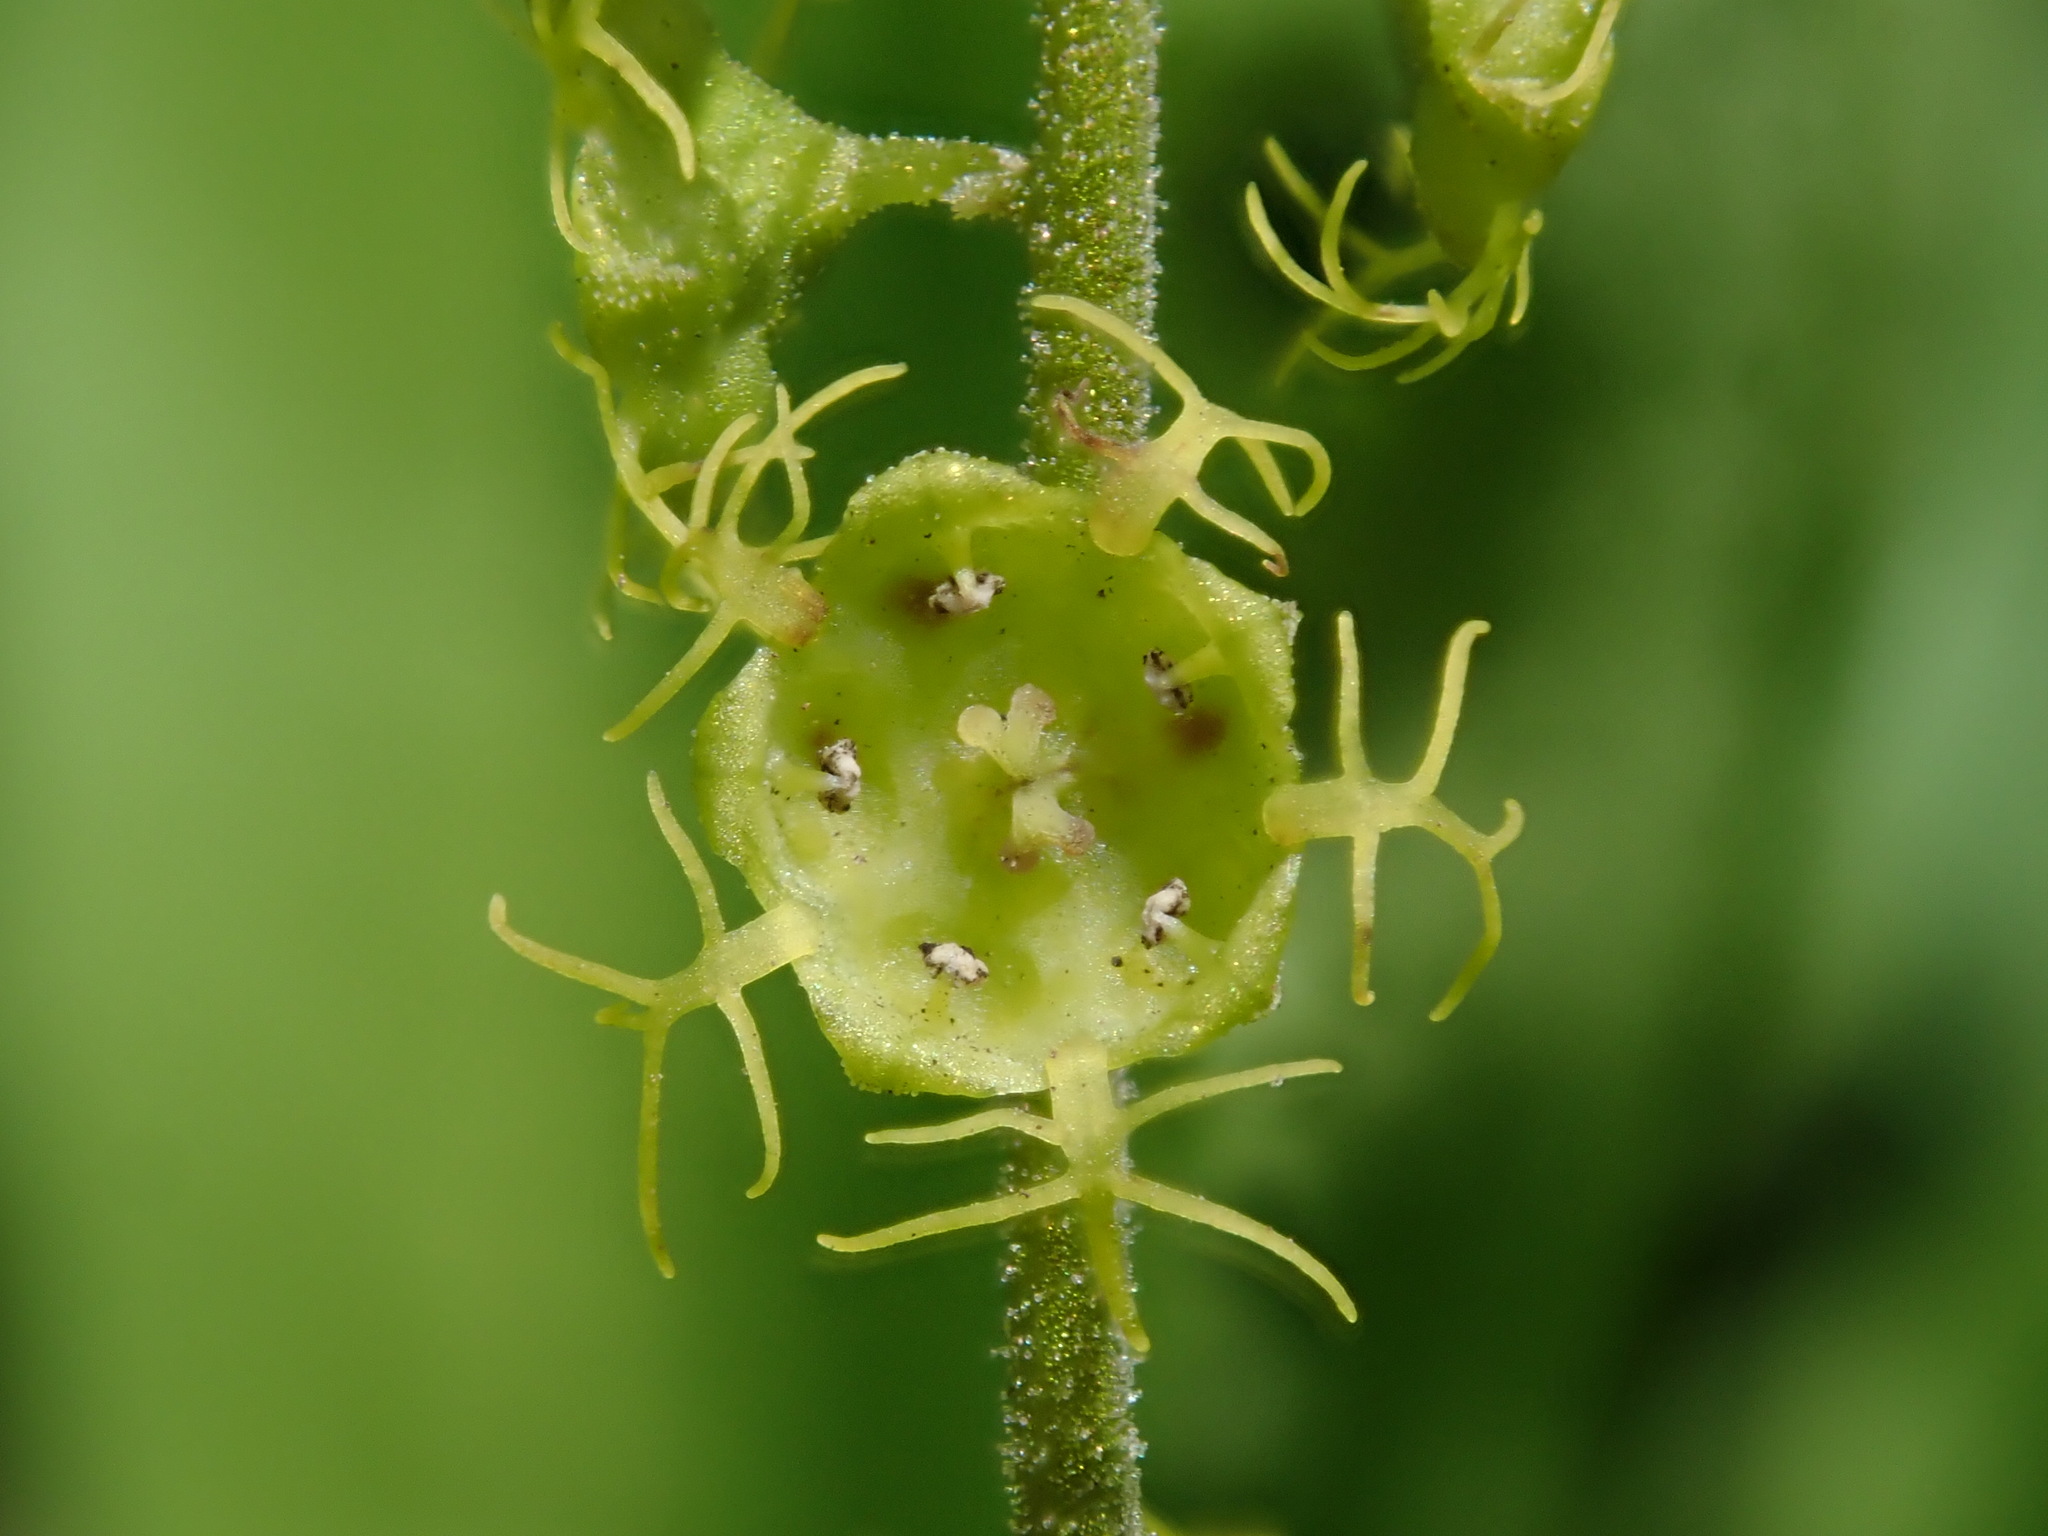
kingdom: Plantae
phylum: Tracheophyta
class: Magnoliopsida
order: Saxifragales
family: Saxifragaceae
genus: Brewerimitella
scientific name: Brewerimitella breweri
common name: Brewer's bishop's-cap
